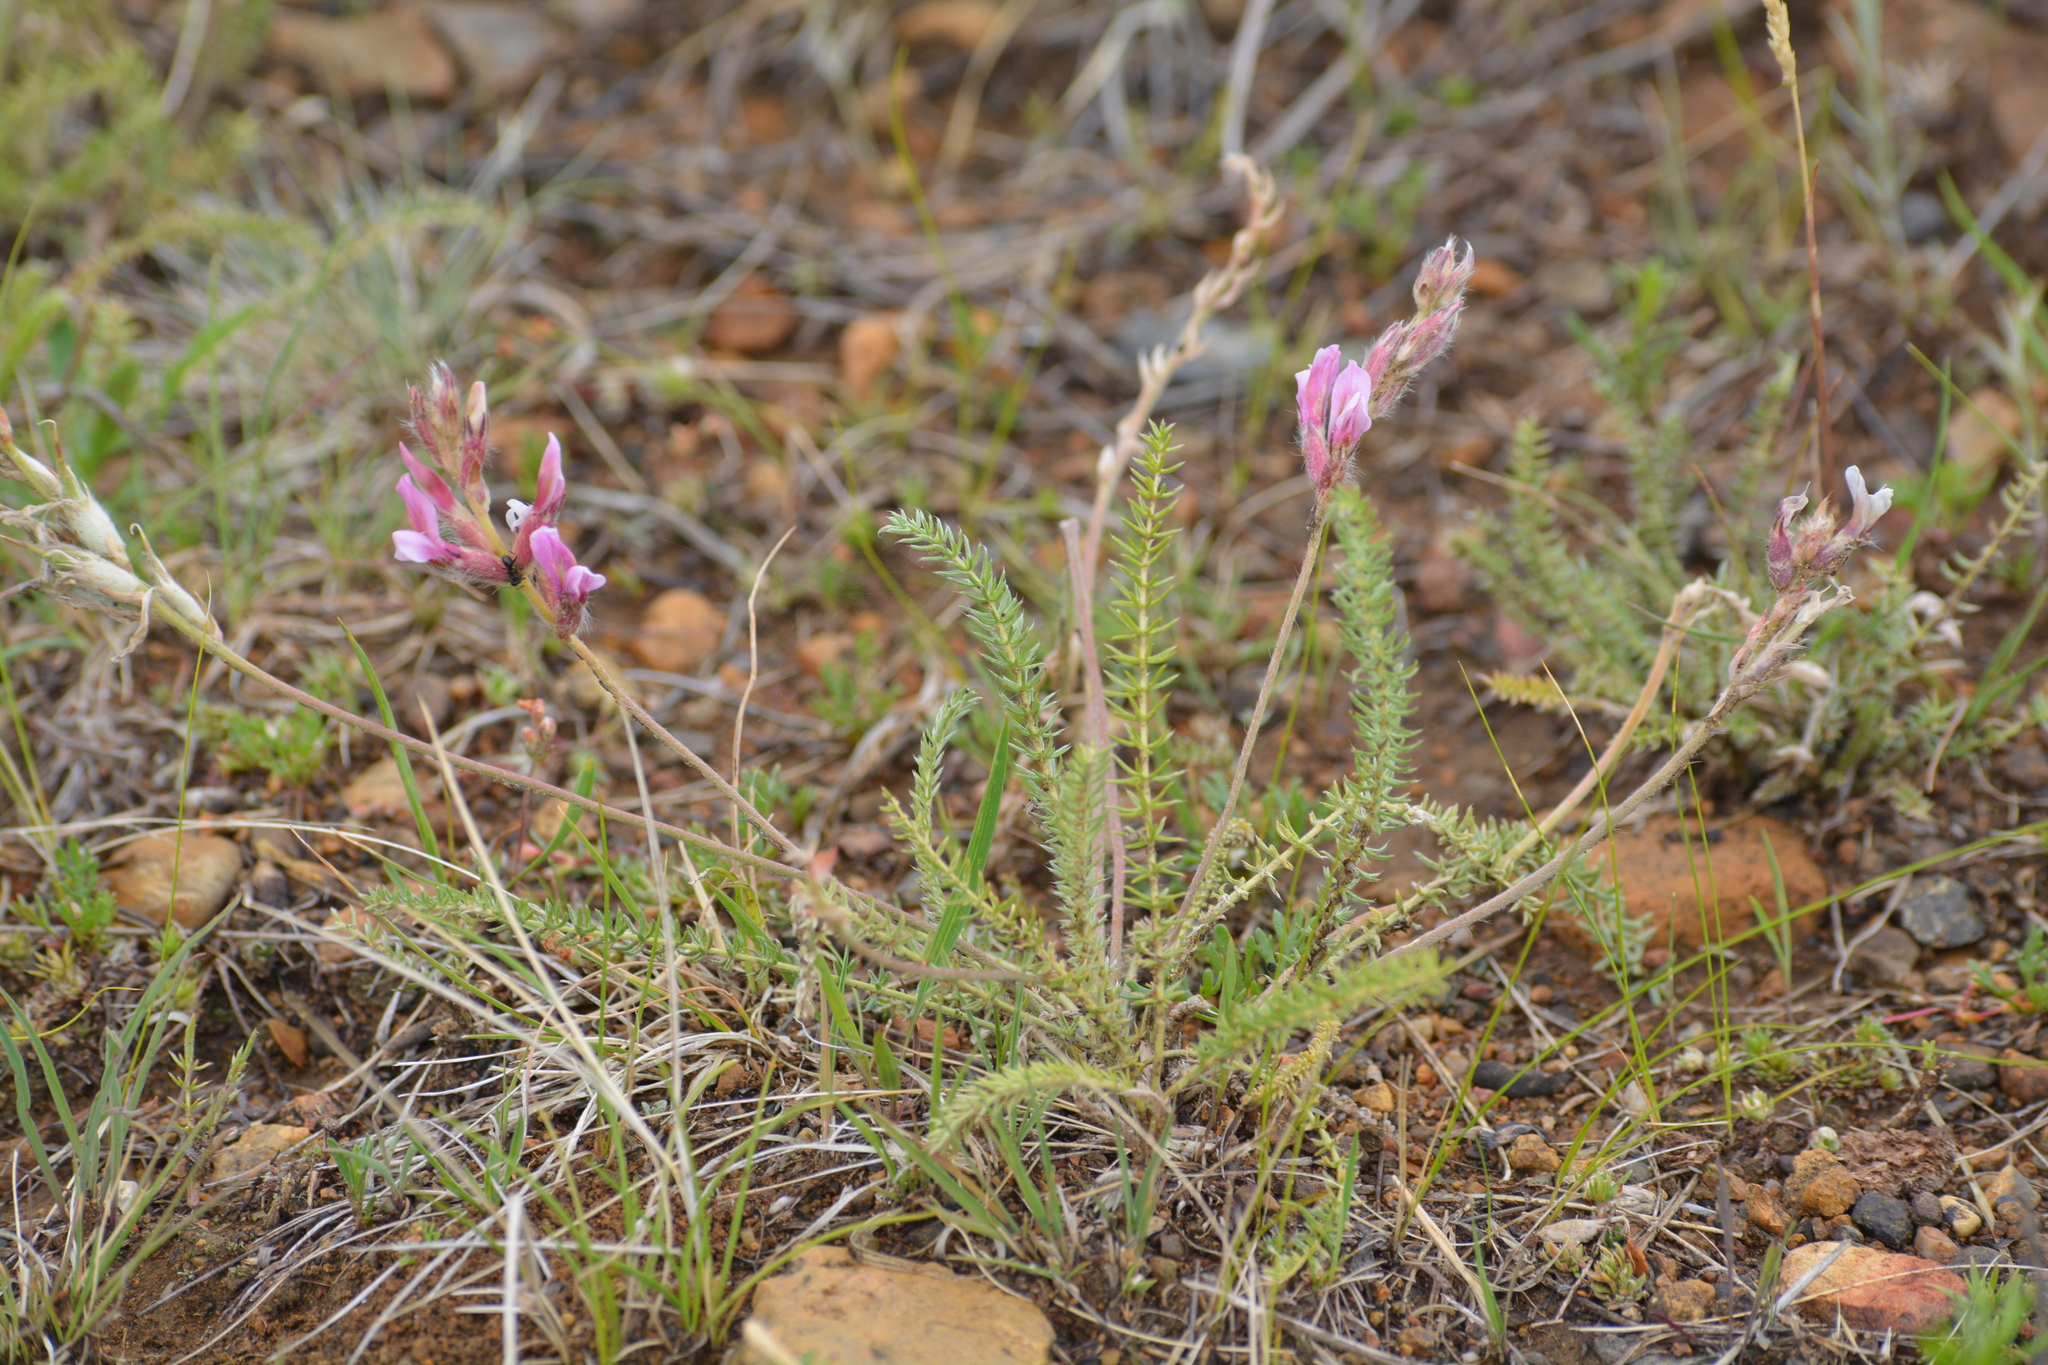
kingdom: Plantae
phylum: Tracheophyta
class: Magnoliopsida
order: Fabales
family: Fabaceae
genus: Oxytropis
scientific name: Oxytropis myriophylla
